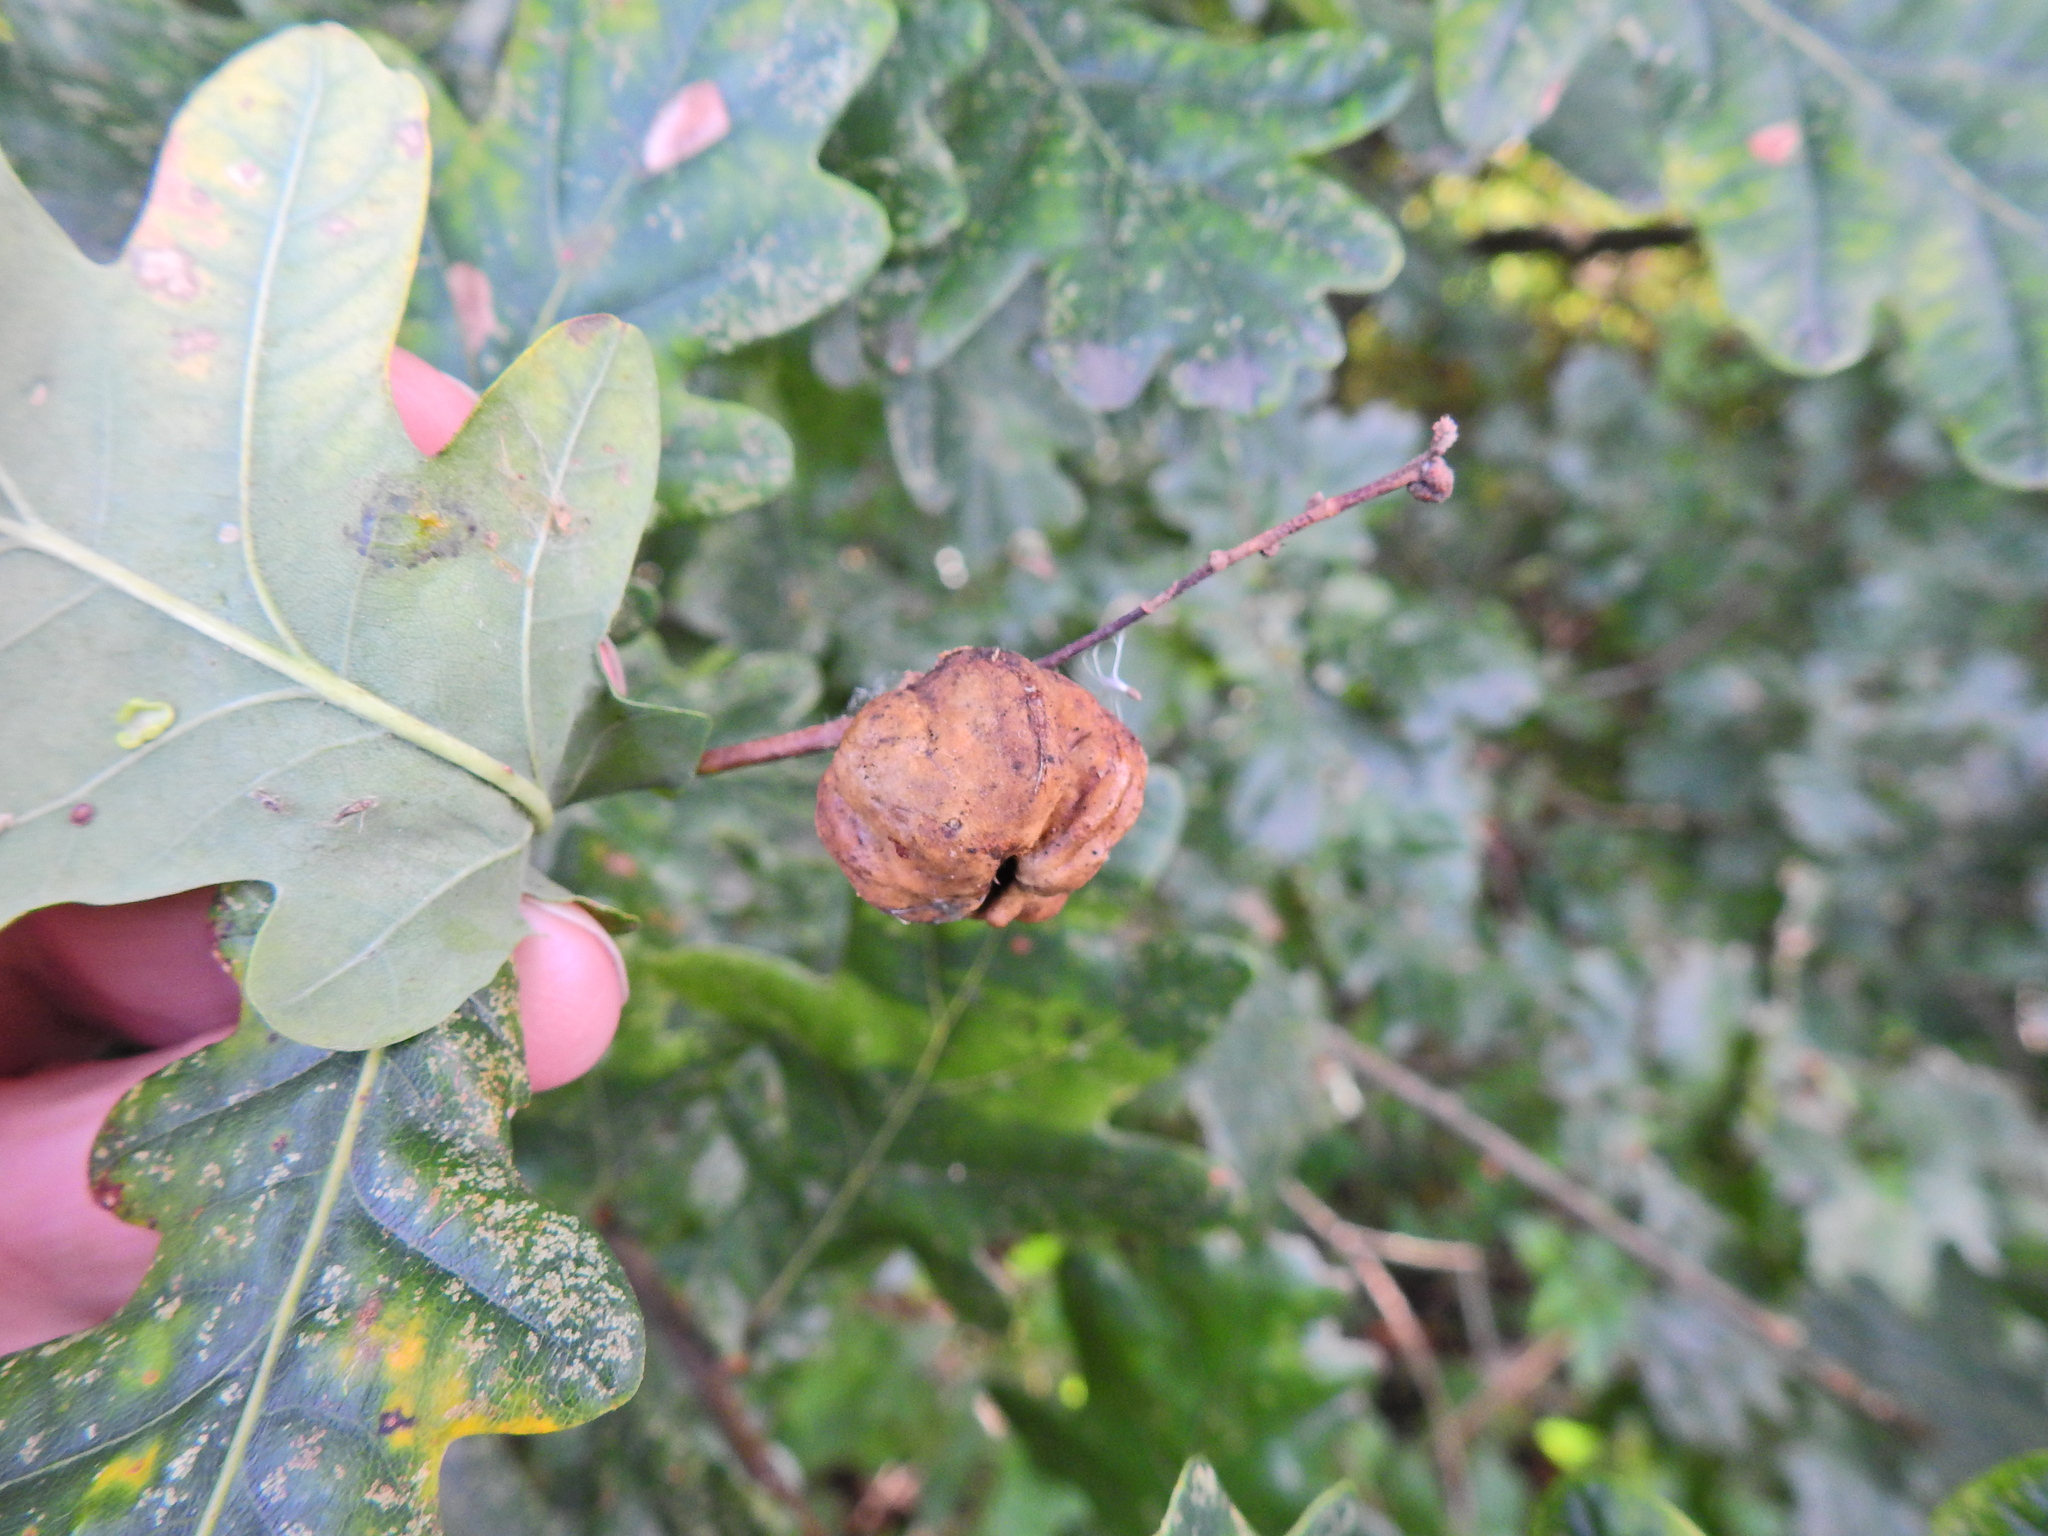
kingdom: Animalia
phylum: Arthropoda
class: Insecta
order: Hymenoptera
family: Cynipidae
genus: Andricus
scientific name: Andricus quercuscalicis
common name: Knopper gall
